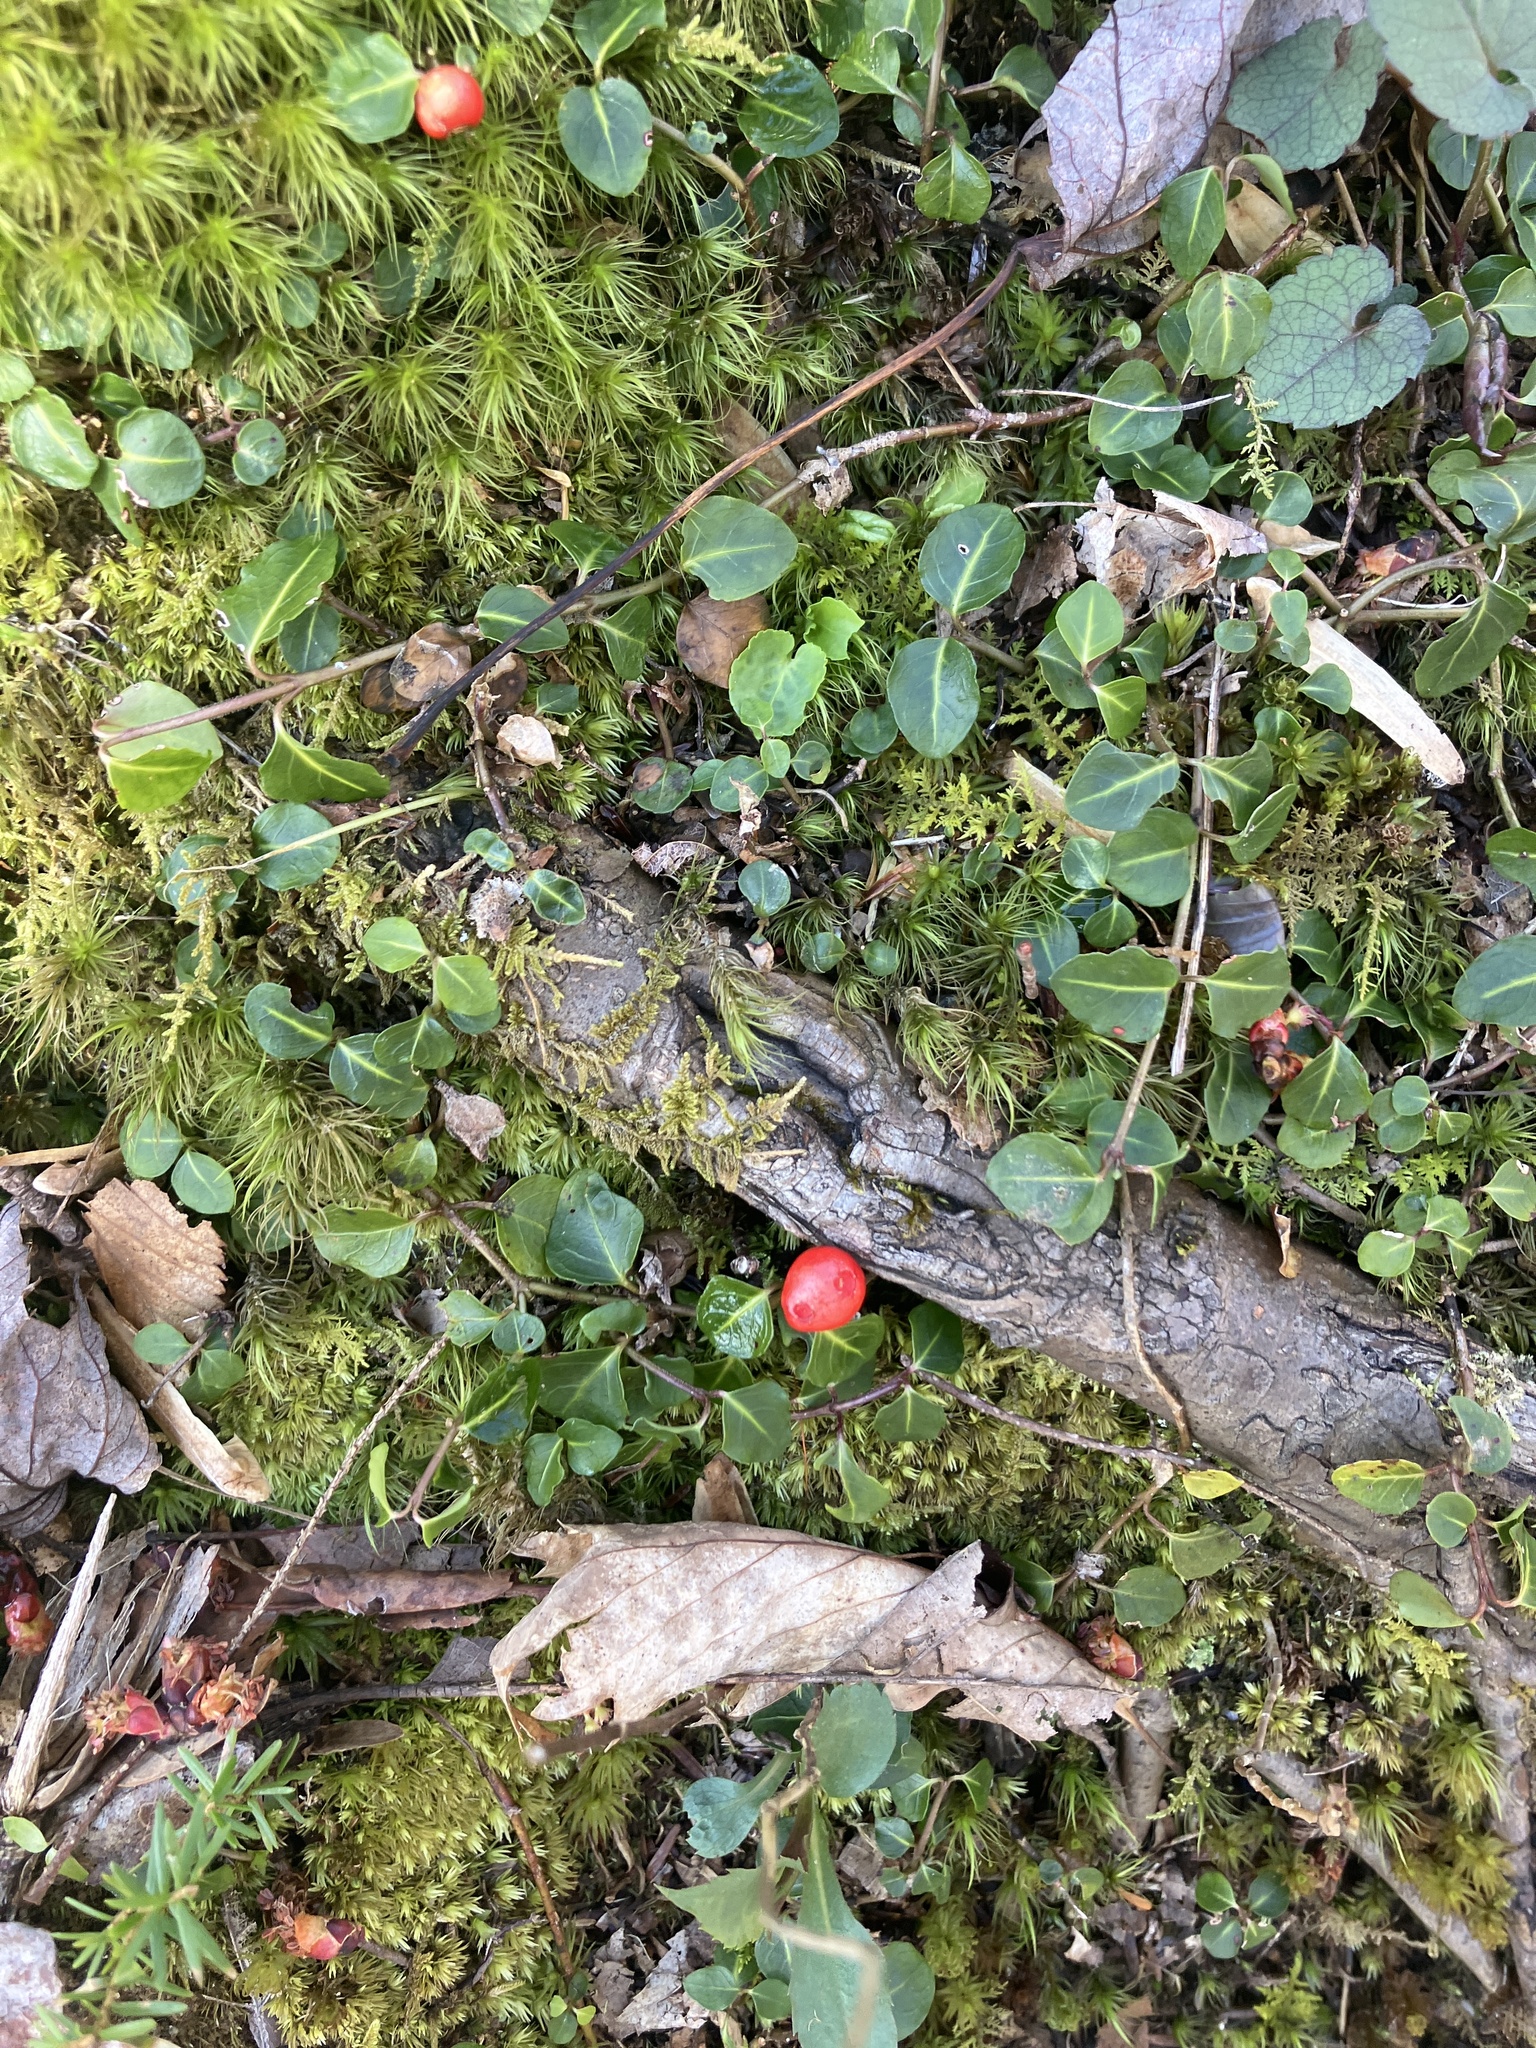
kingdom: Plantae
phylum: Tracheophyta
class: Magnoliopsida
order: Gentianales
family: Rubiaceae
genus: Mitchella
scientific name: Mitchella repens
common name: Partridge-berry
